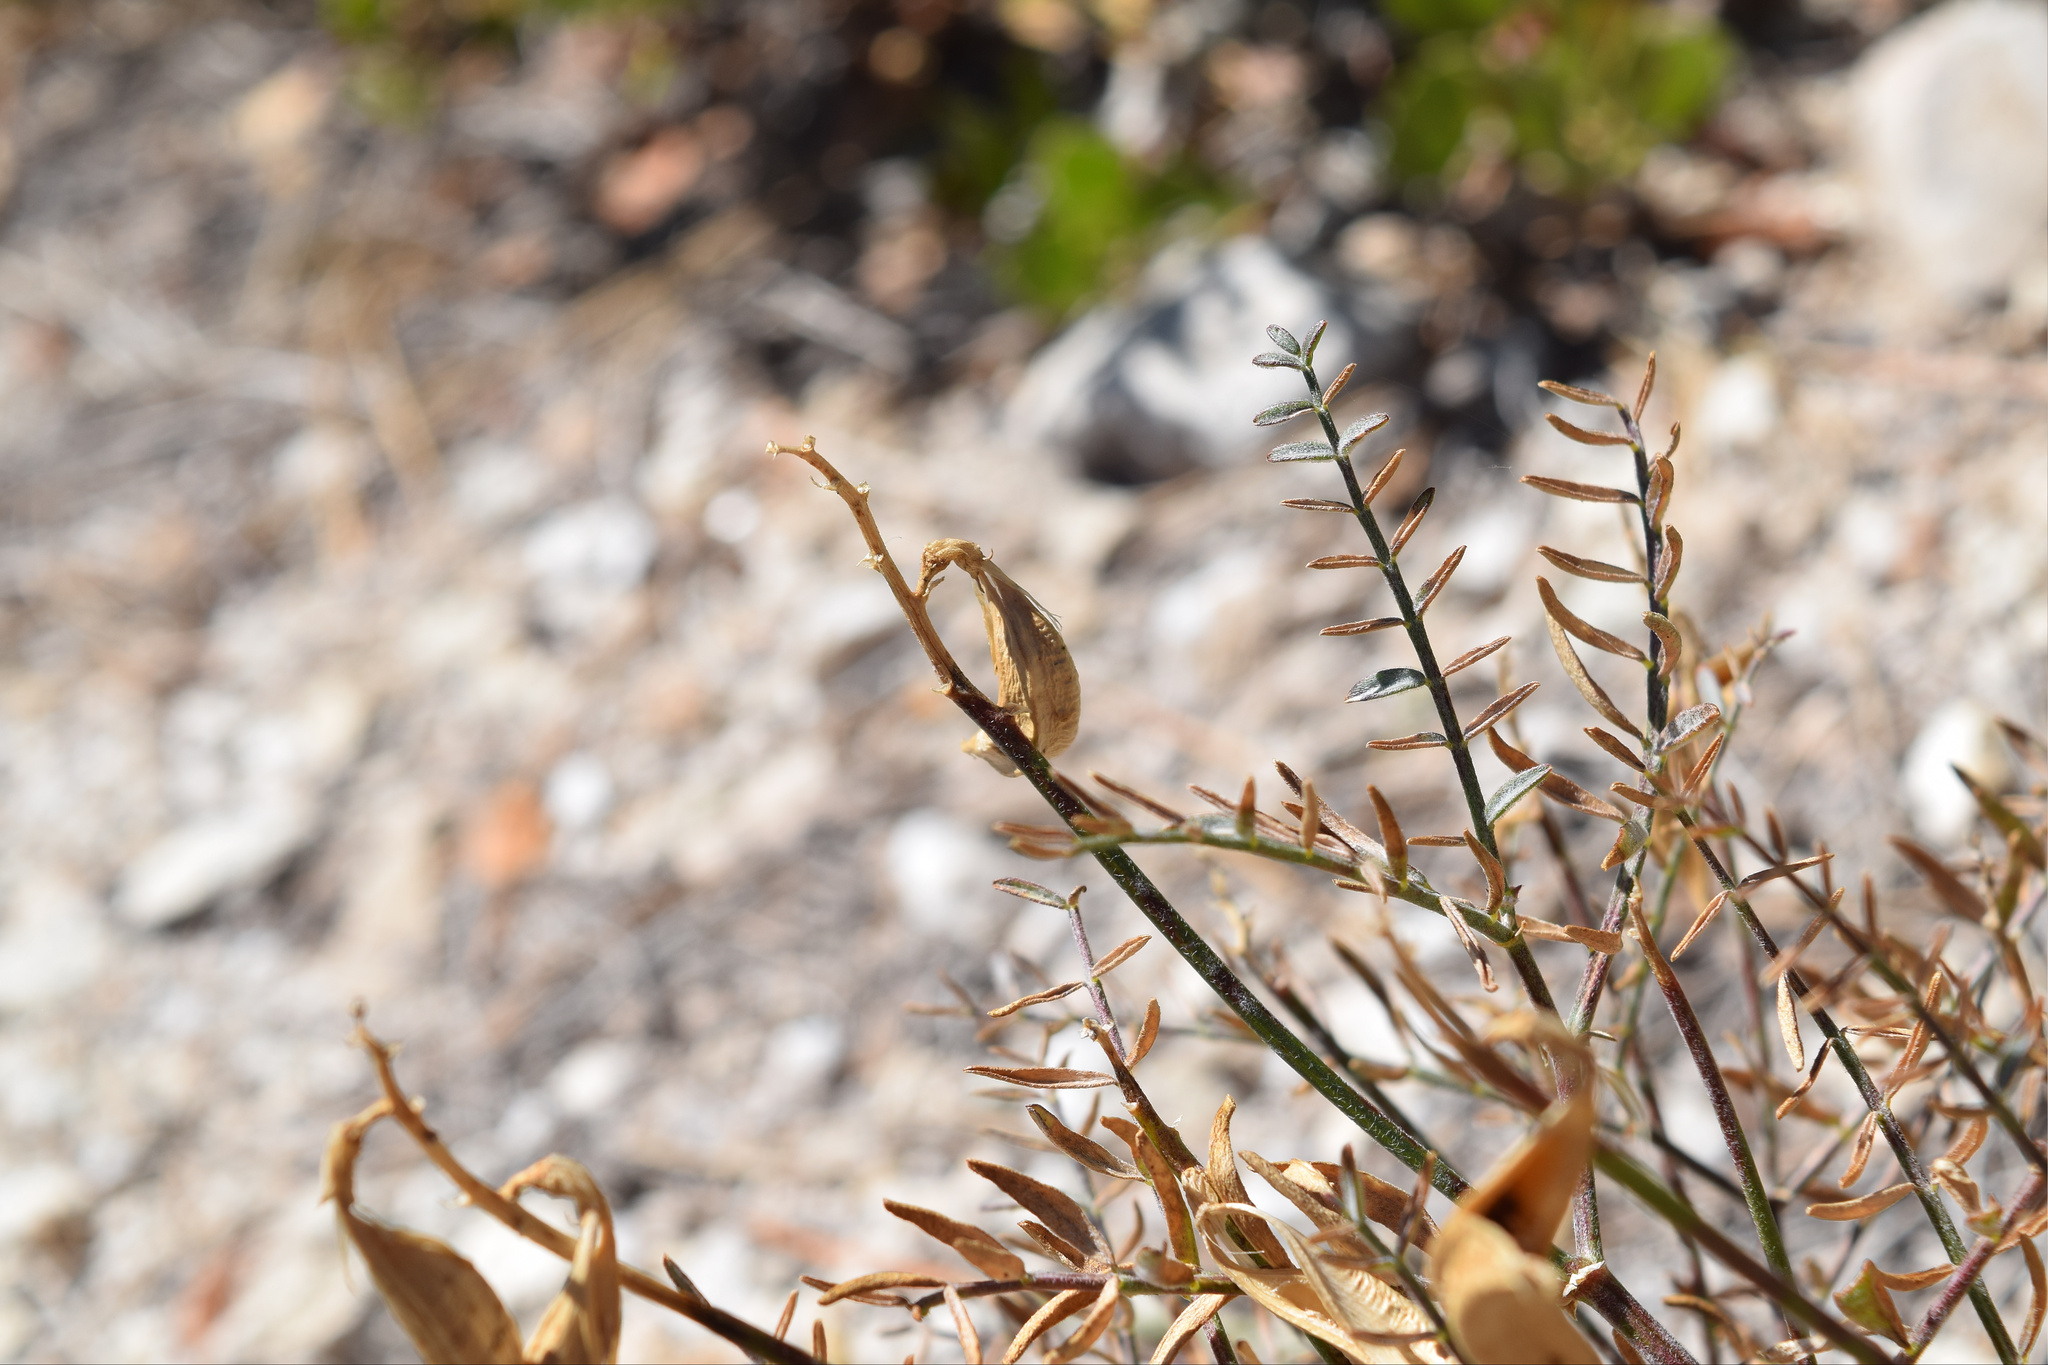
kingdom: Plantae
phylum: Tracheophyta
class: Magnoliopsida
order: Fabales
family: Fabaceae
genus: Astragalus
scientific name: Astragalus bicristatus
